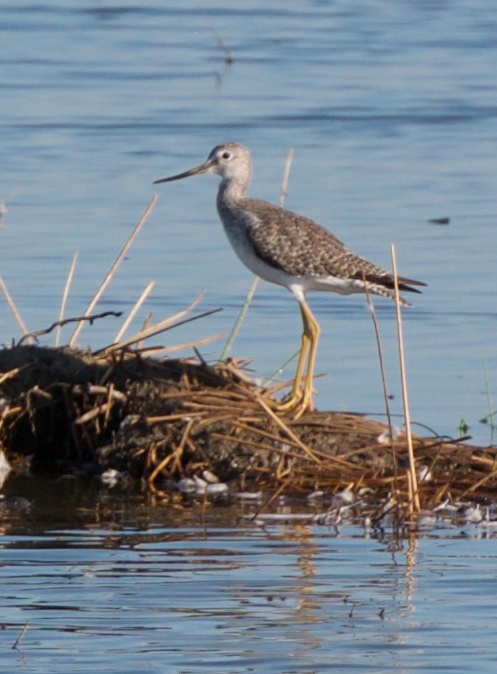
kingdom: Animalia
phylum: Chordata
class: Aves
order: Charadriiformes
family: Scolopacidae
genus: Tringa
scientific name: Tringa melanoleuca
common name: Greater yellowlegs
